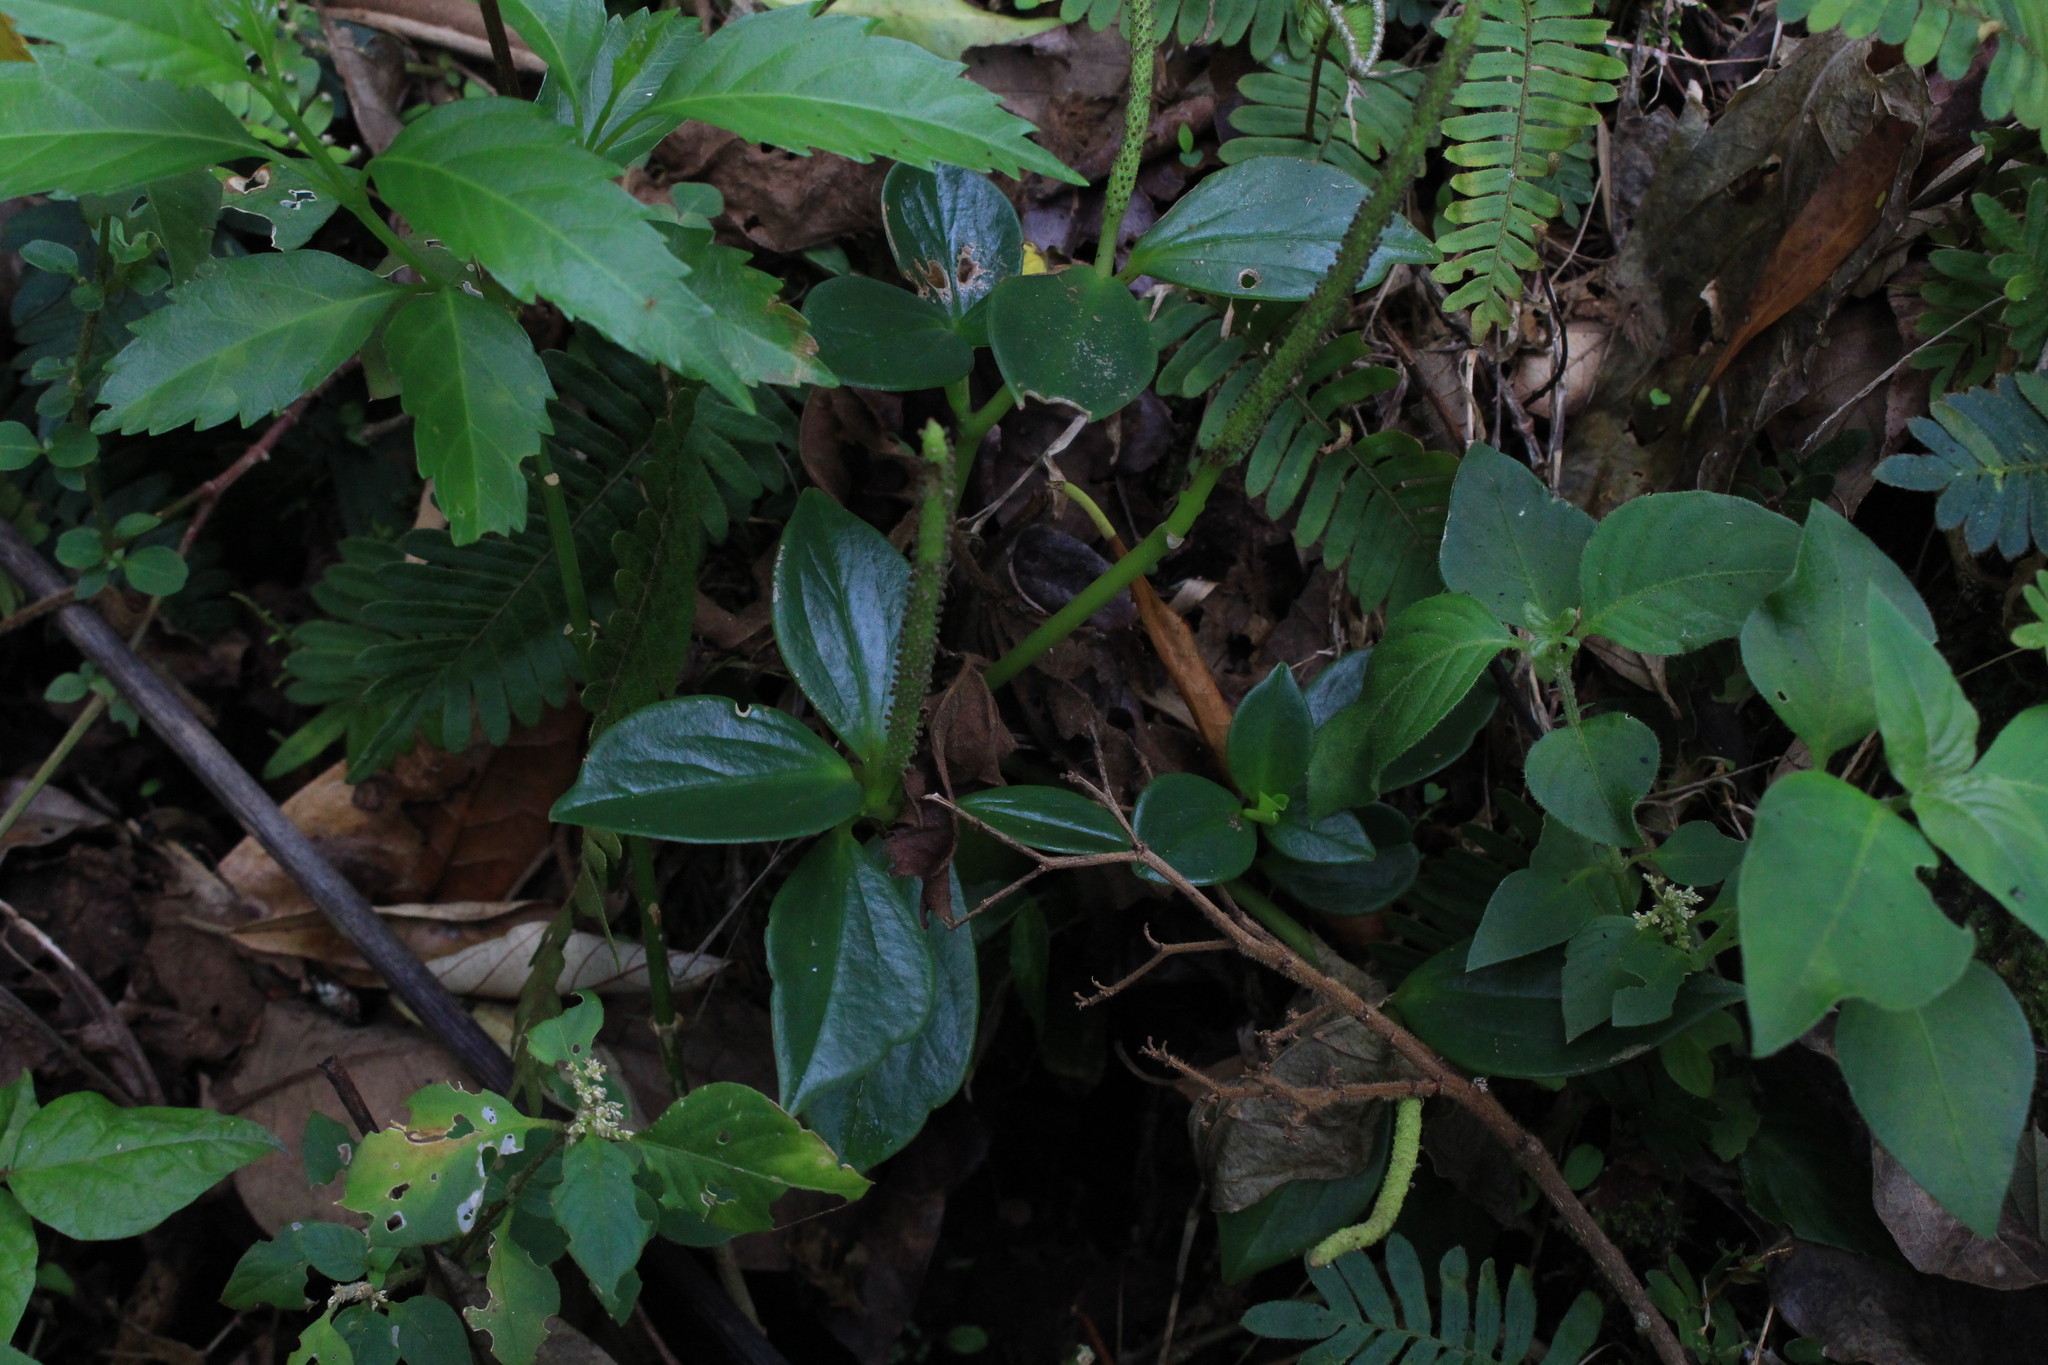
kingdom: Plantae
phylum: Tracheophyta
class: Magnoliopsida
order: Piperales
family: Piperaceae
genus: Peperomia
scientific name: Peperomia san-joseana
